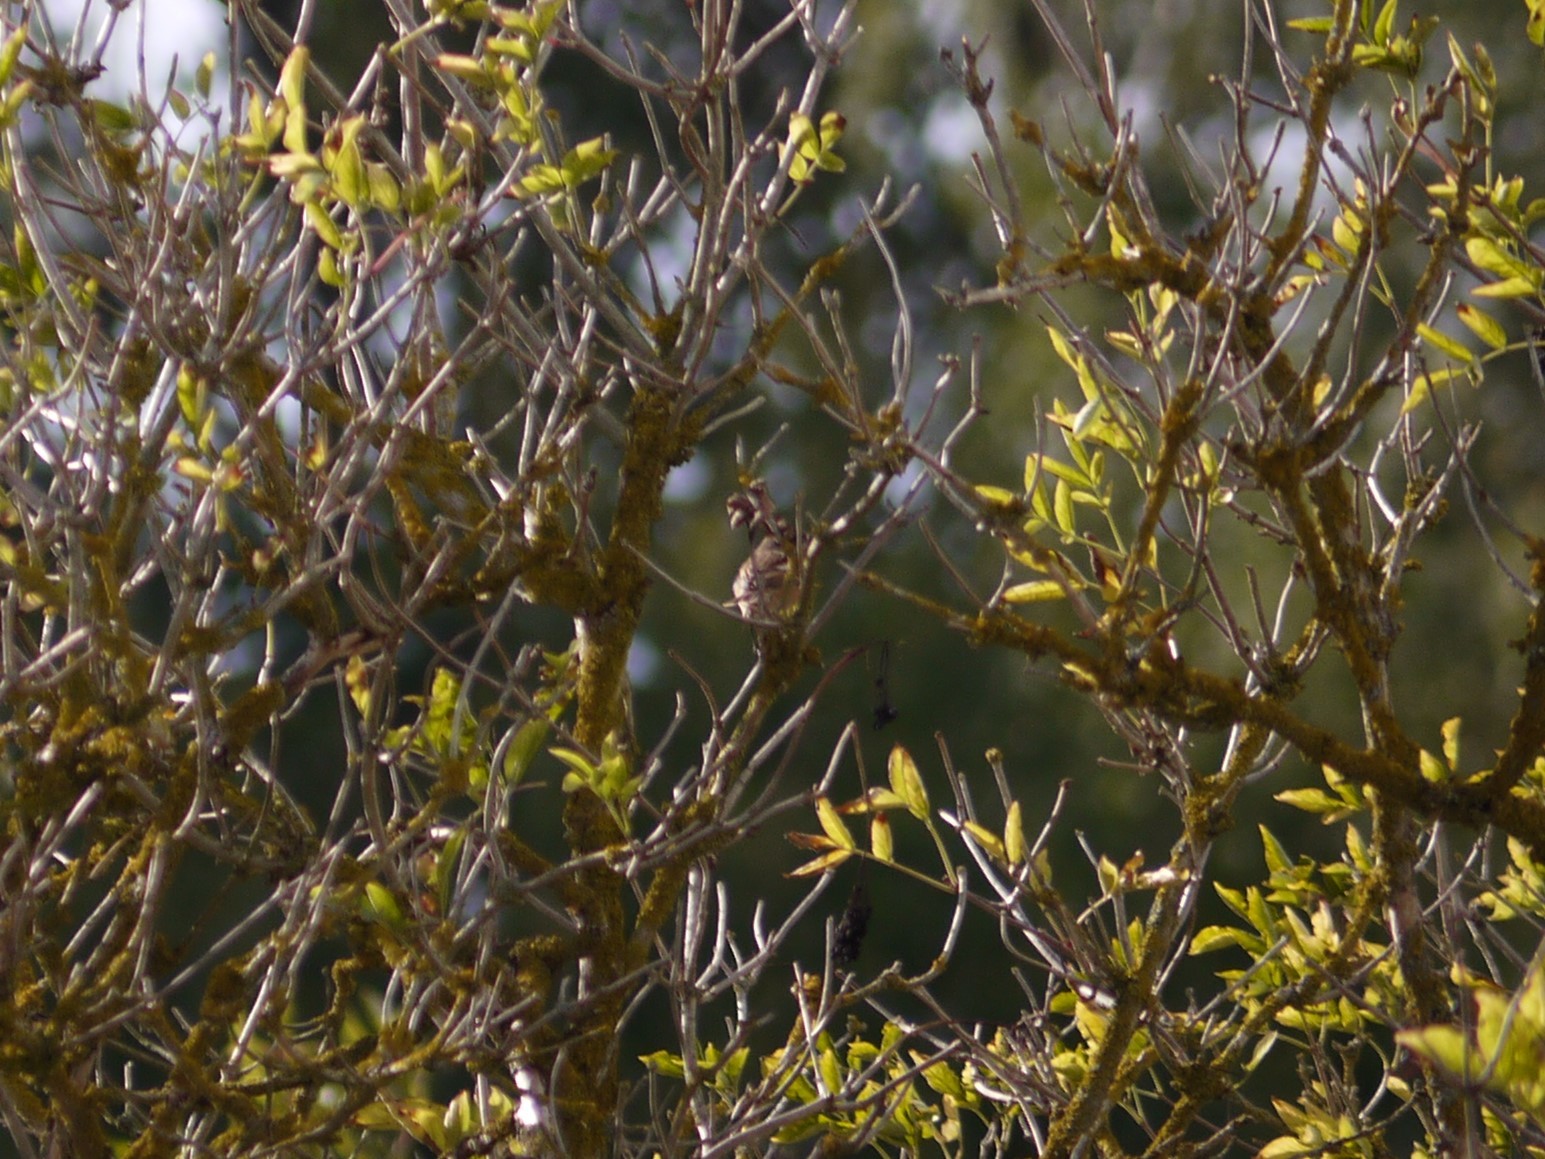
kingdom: Animalia
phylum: Chordata
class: Aves
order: Passeriformes
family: Muscicapidae
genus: Saxicola
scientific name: Saxicola rubicola
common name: European stonechat
